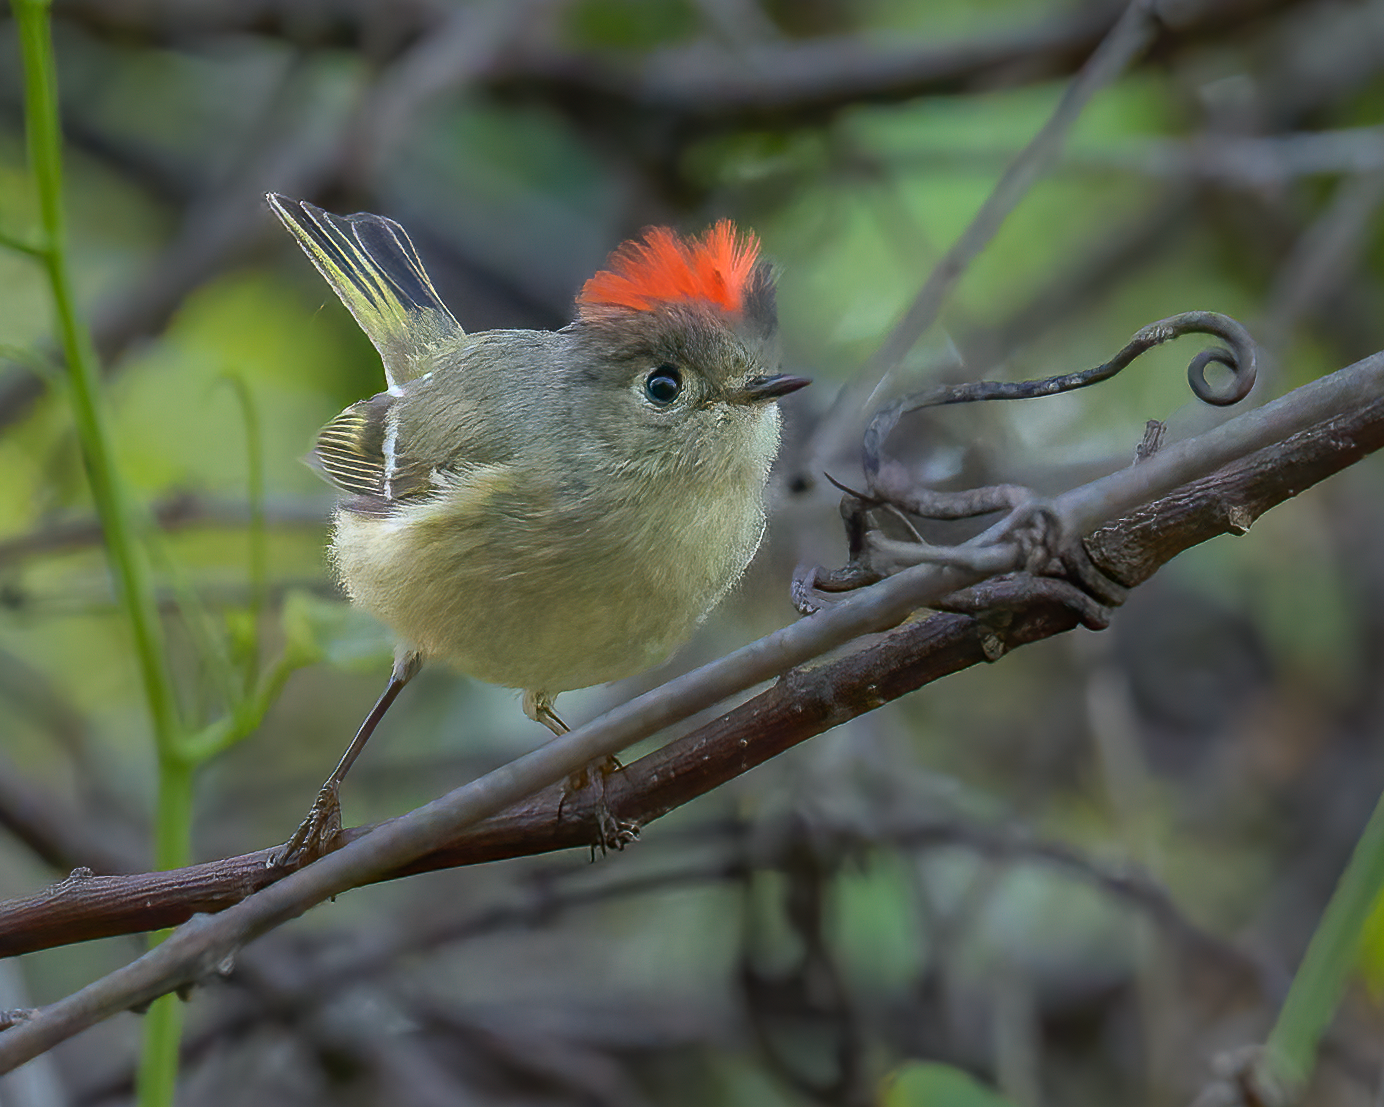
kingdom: Animalia
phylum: Chordata
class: Aves
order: Passeriformes
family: Regulidae
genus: Regulus
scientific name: Regulus calendula
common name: Ruby-crowned kinglet
